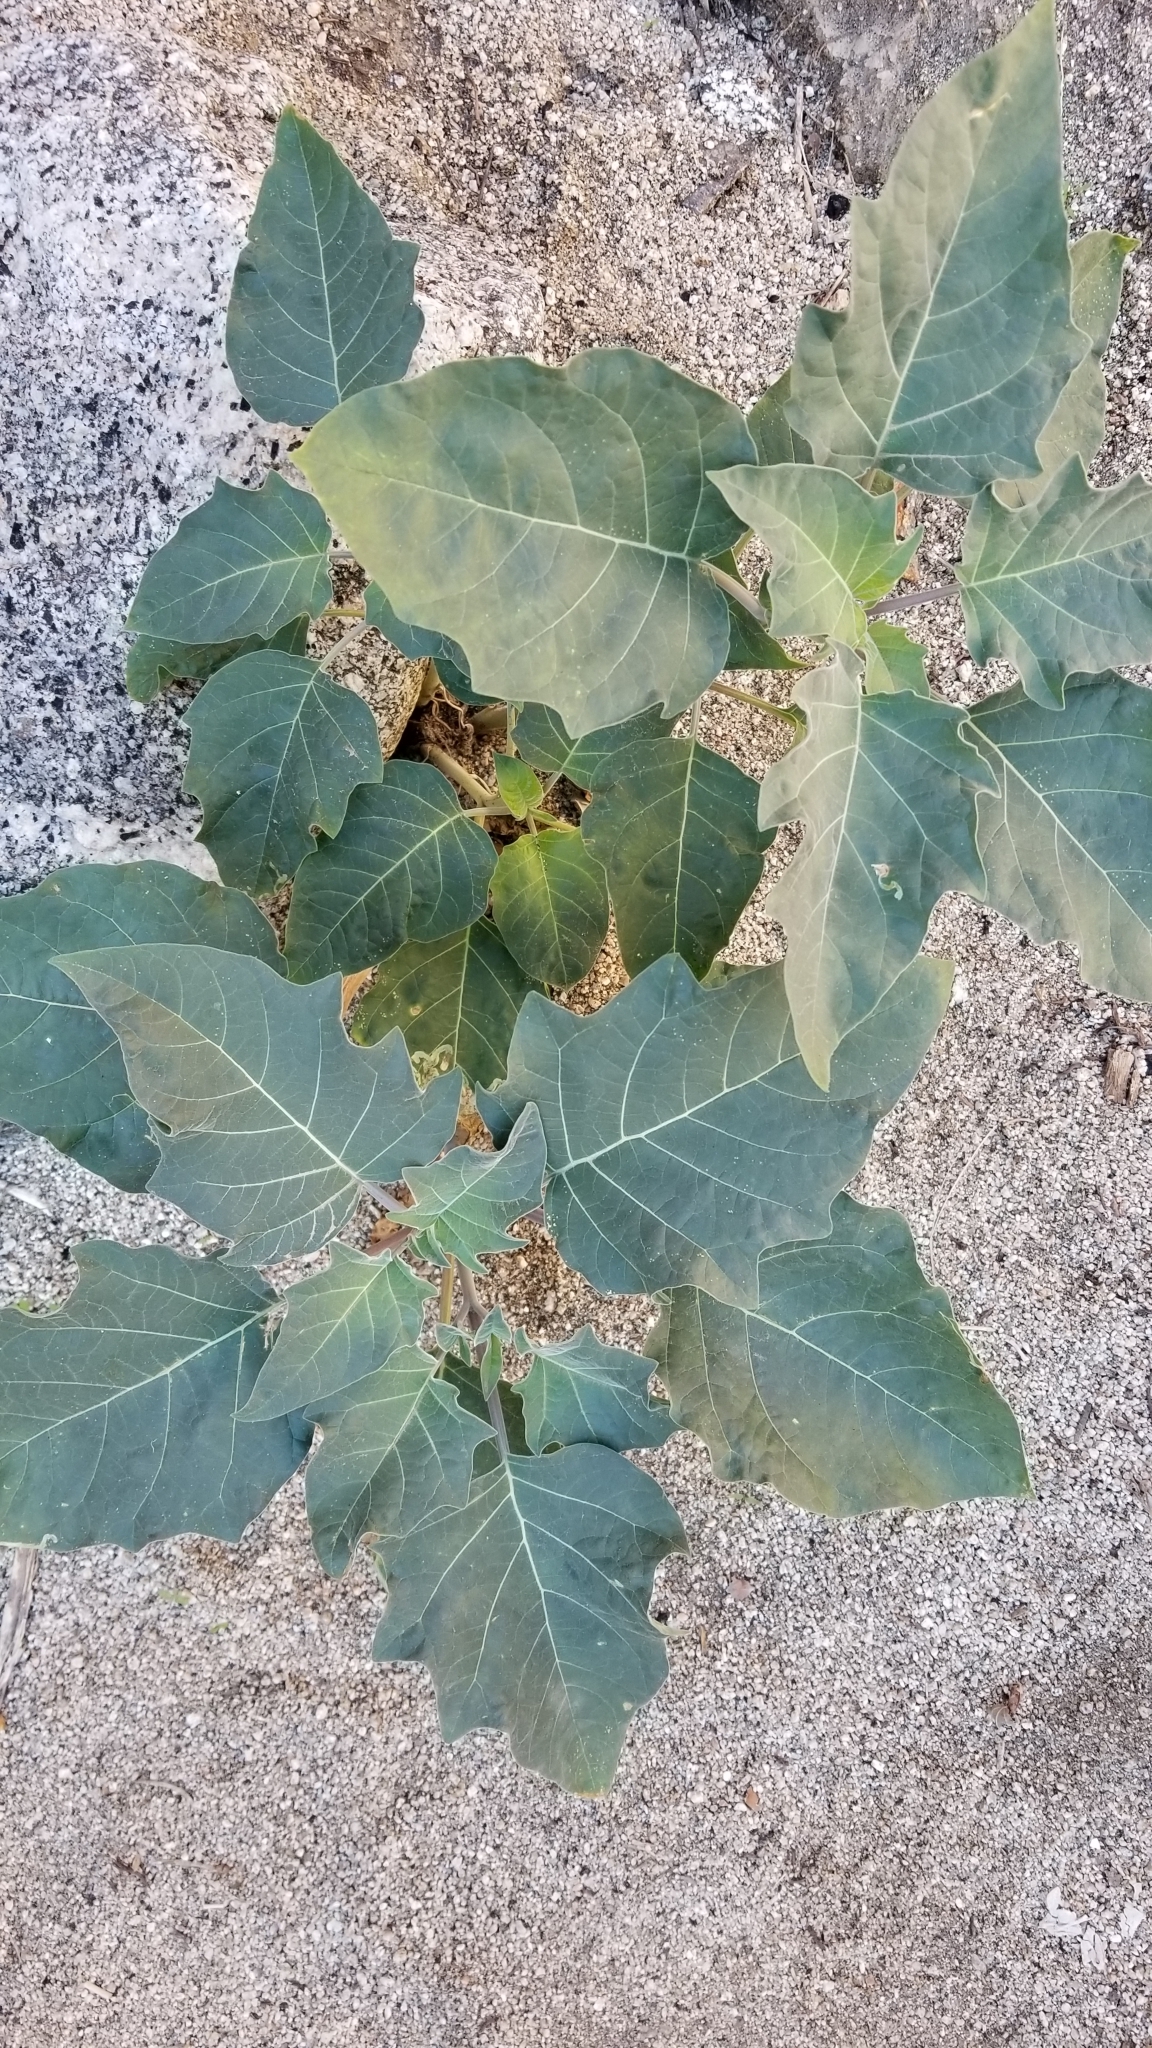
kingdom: Plantae
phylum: Tracheophyta
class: Magnoliopsida
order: Solanales
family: Solanaceae
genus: Datura
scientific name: Datura wrightii
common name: Sacred thorn-apple
